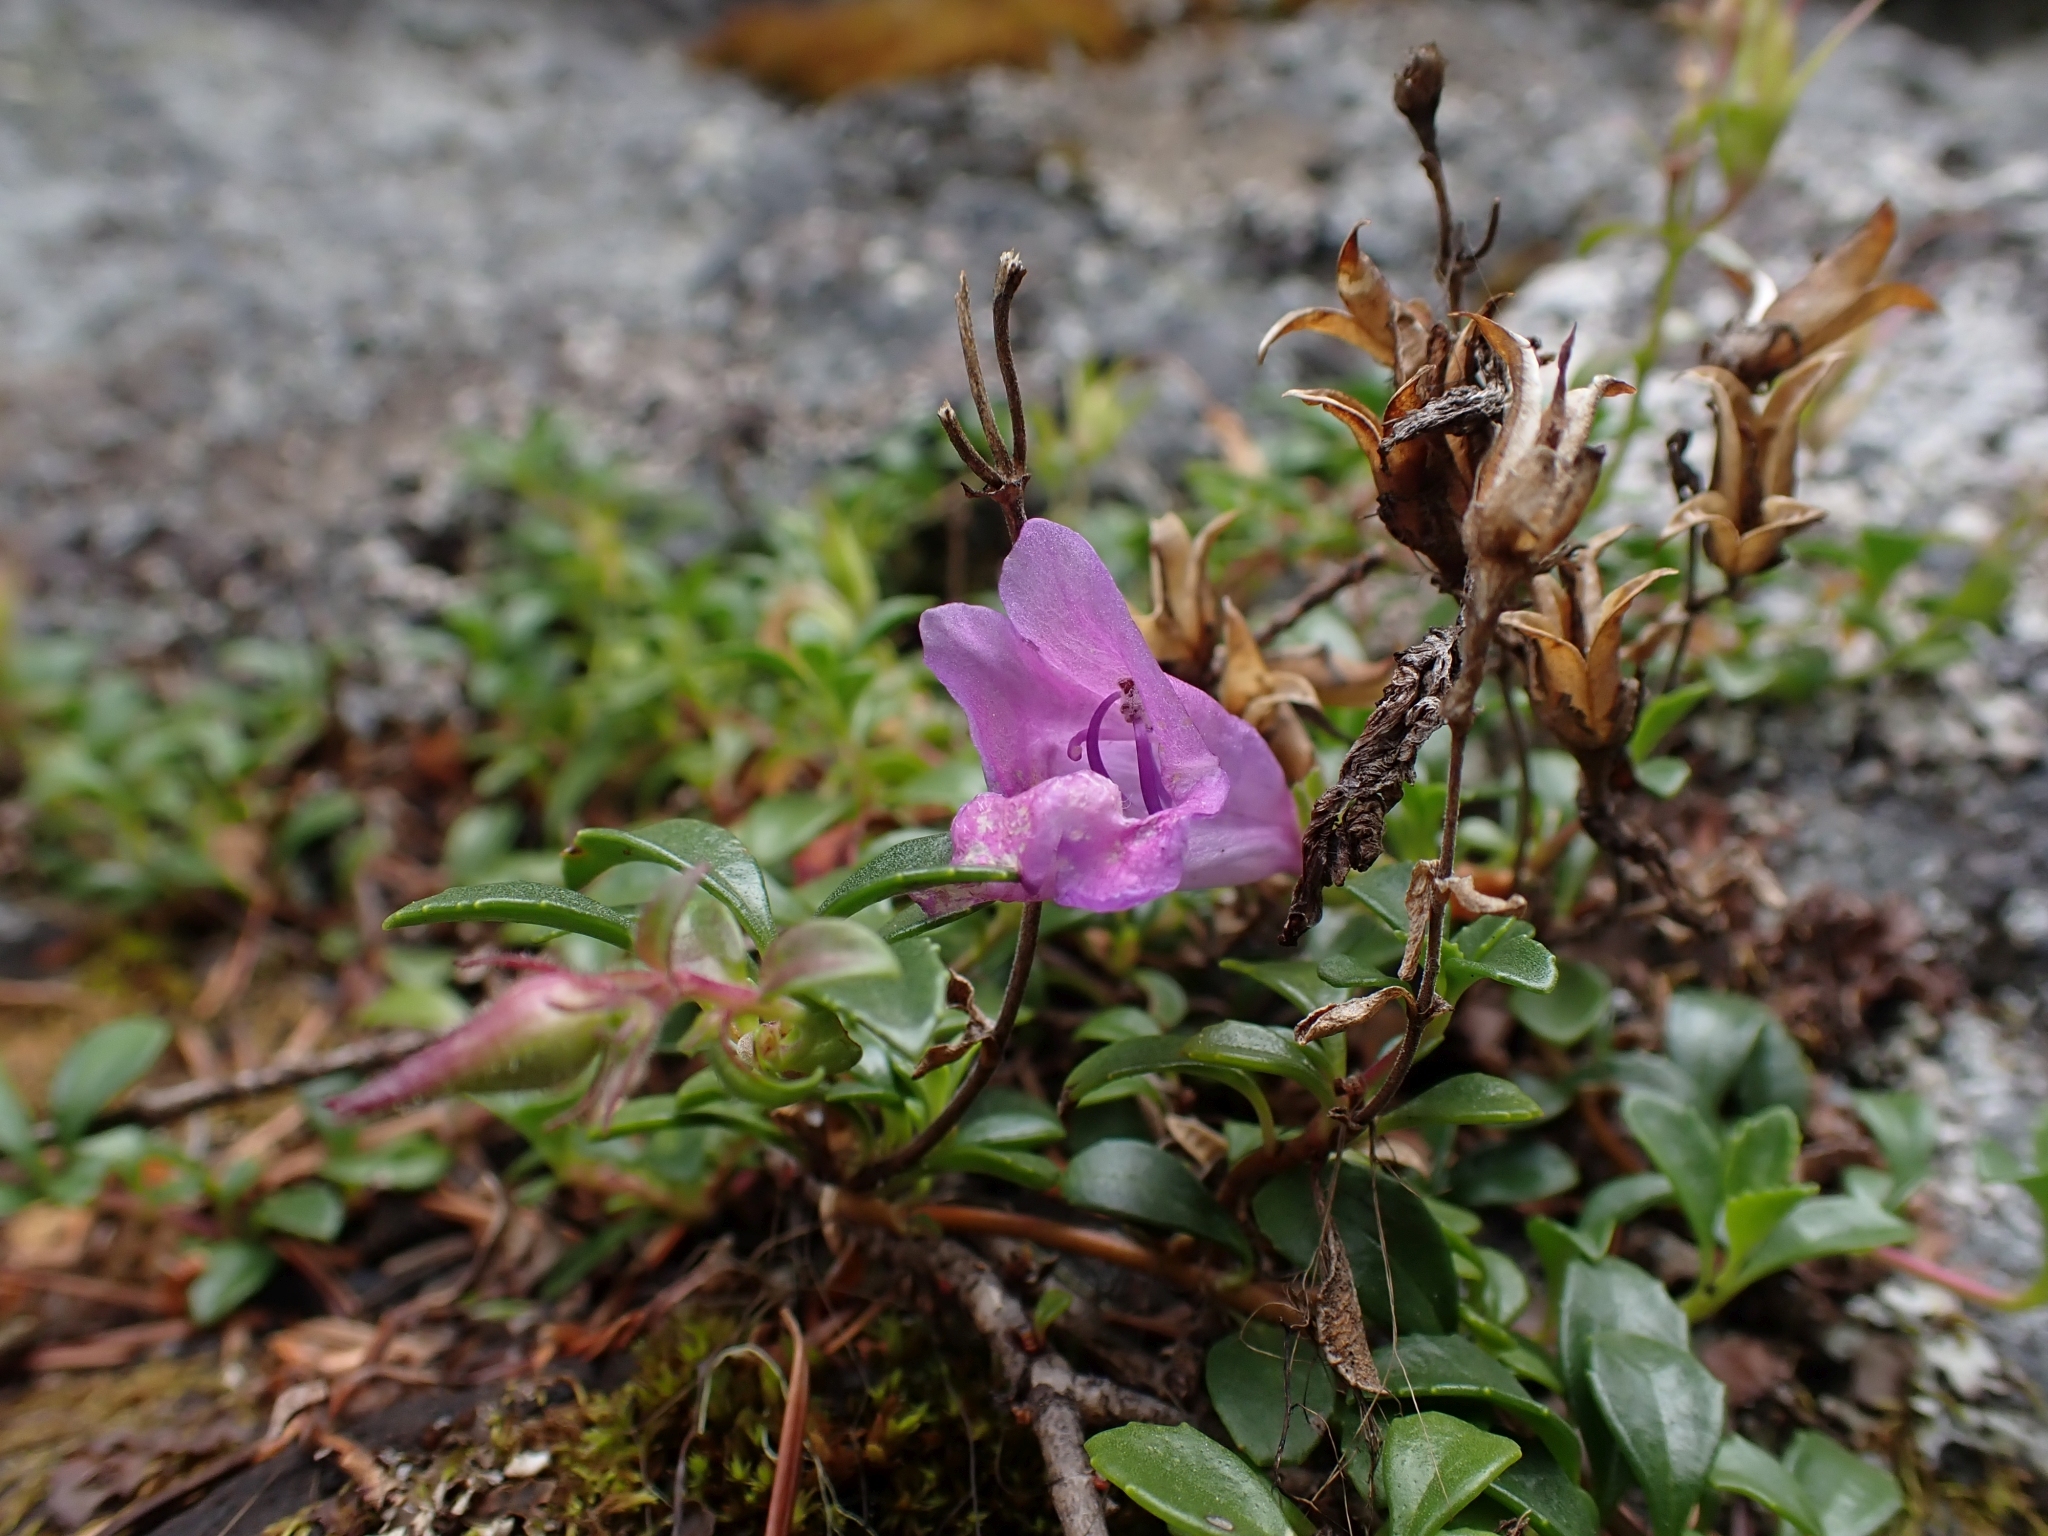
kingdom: Plantae
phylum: Tracheophyta
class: Magnoliopsida
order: Lamiales
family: Plantaginaceae
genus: Penstemon
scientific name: Penstemon davidsonii
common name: Davidson's penstemon
